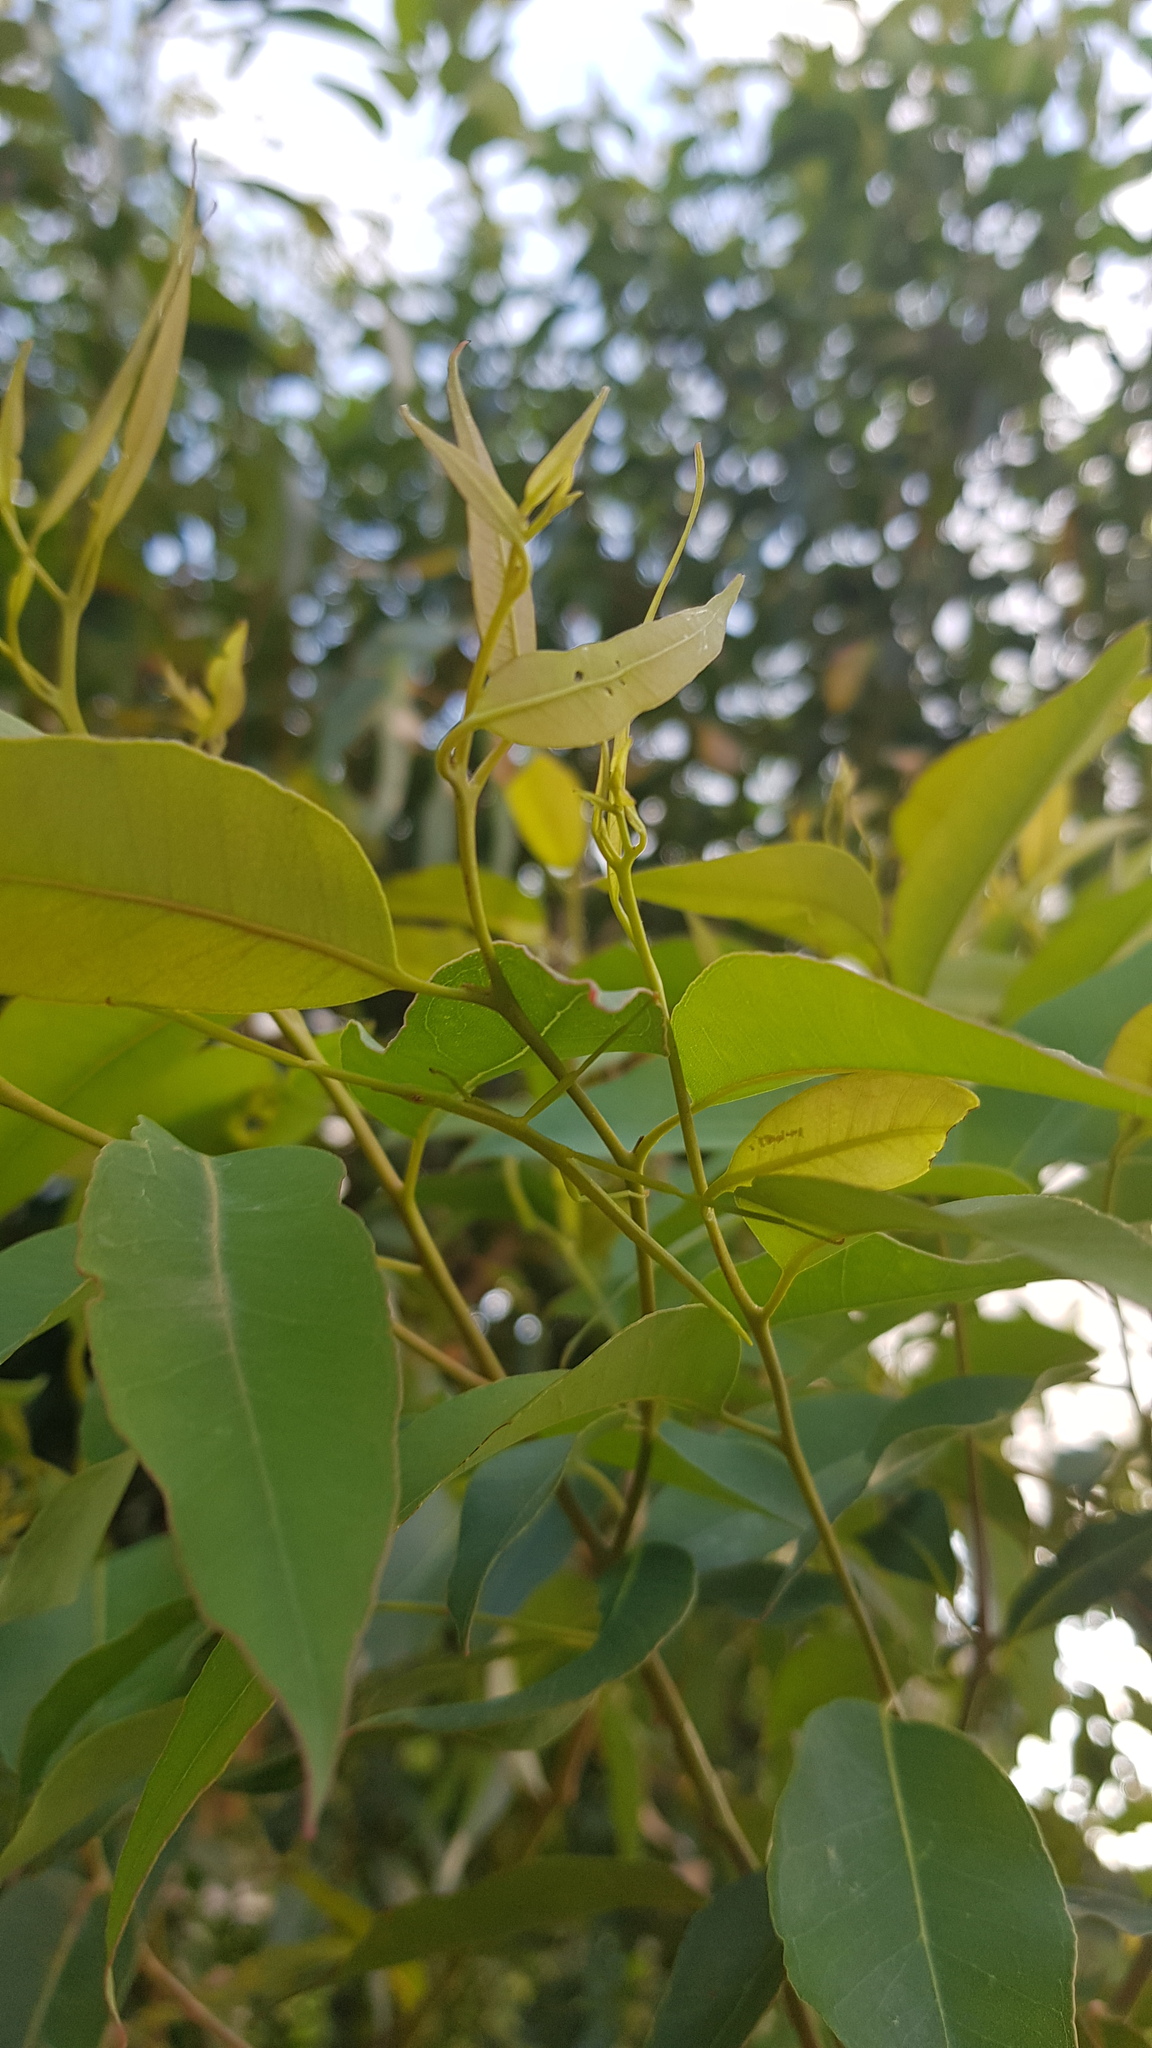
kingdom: Animalia
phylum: Arthropoda
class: Insecta
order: Phasmida
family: Phasmatidae
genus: Didymuria
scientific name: Didymuria violescens
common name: Spur-legged stick-insect
